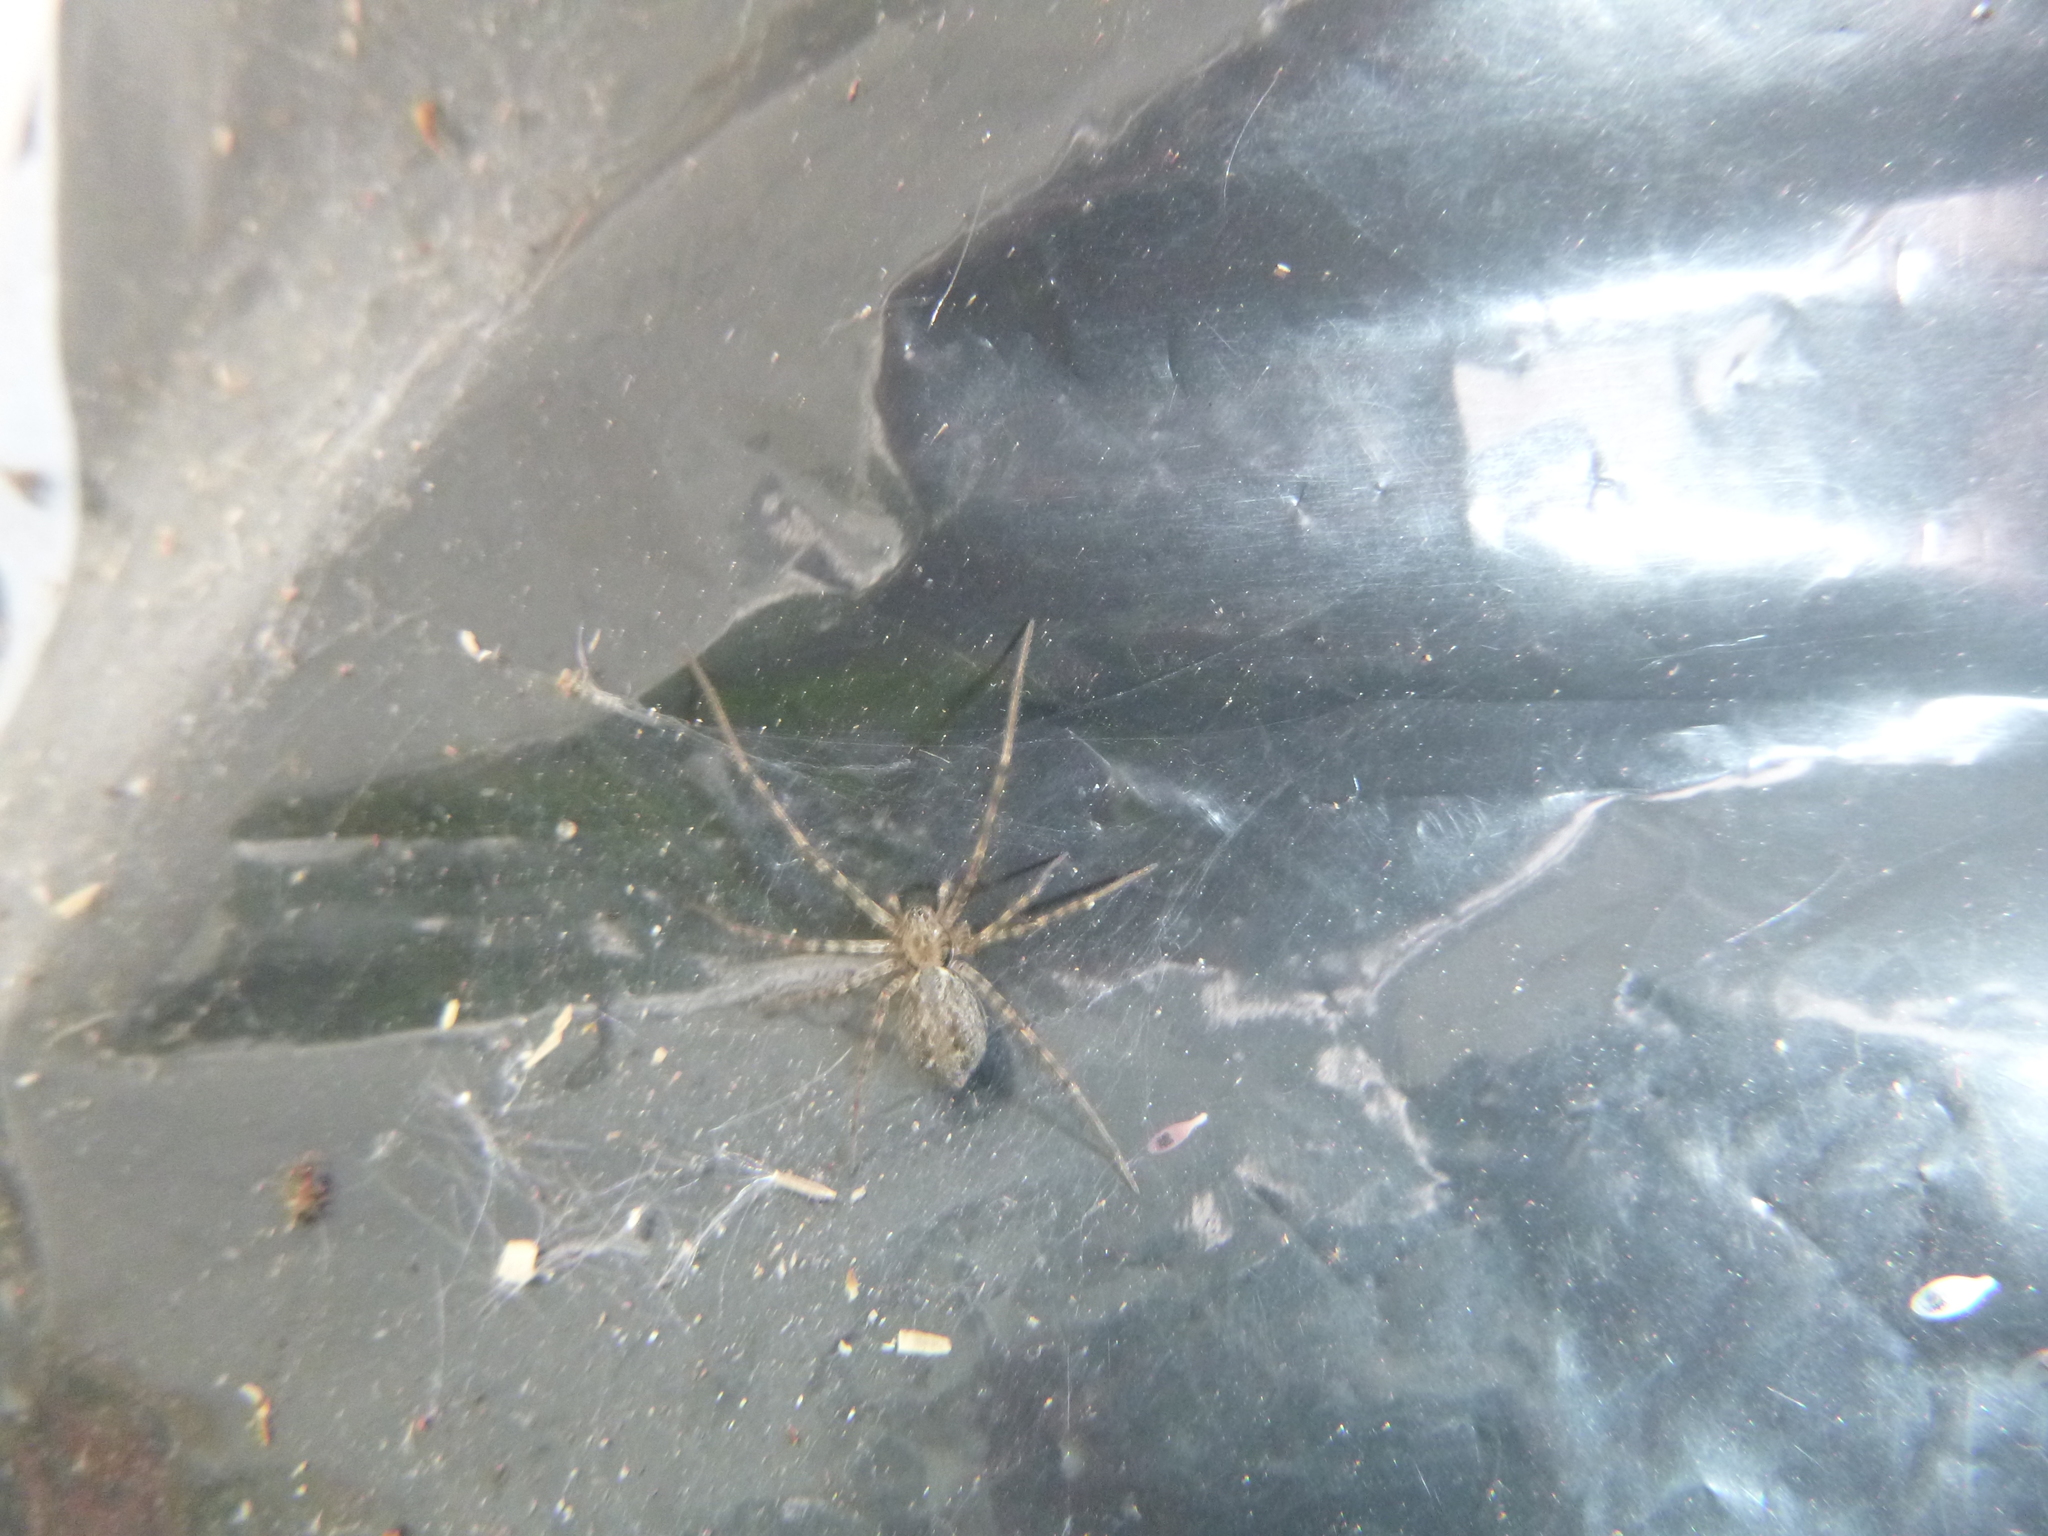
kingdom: Animalia
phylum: Arthropoda
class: Arachnida
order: Araneae
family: Stiphidiidae
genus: Stiphidion
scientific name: Stiphidion facetum
